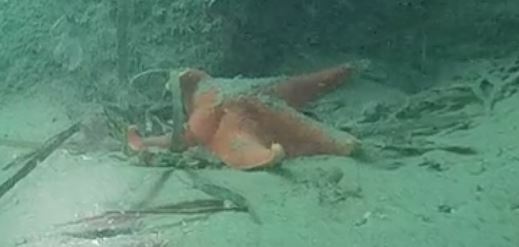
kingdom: Animalia
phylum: Echinodermata
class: Asteroidea
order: Valvatida
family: Asterinidae
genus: Patiria
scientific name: Patiria miniata
